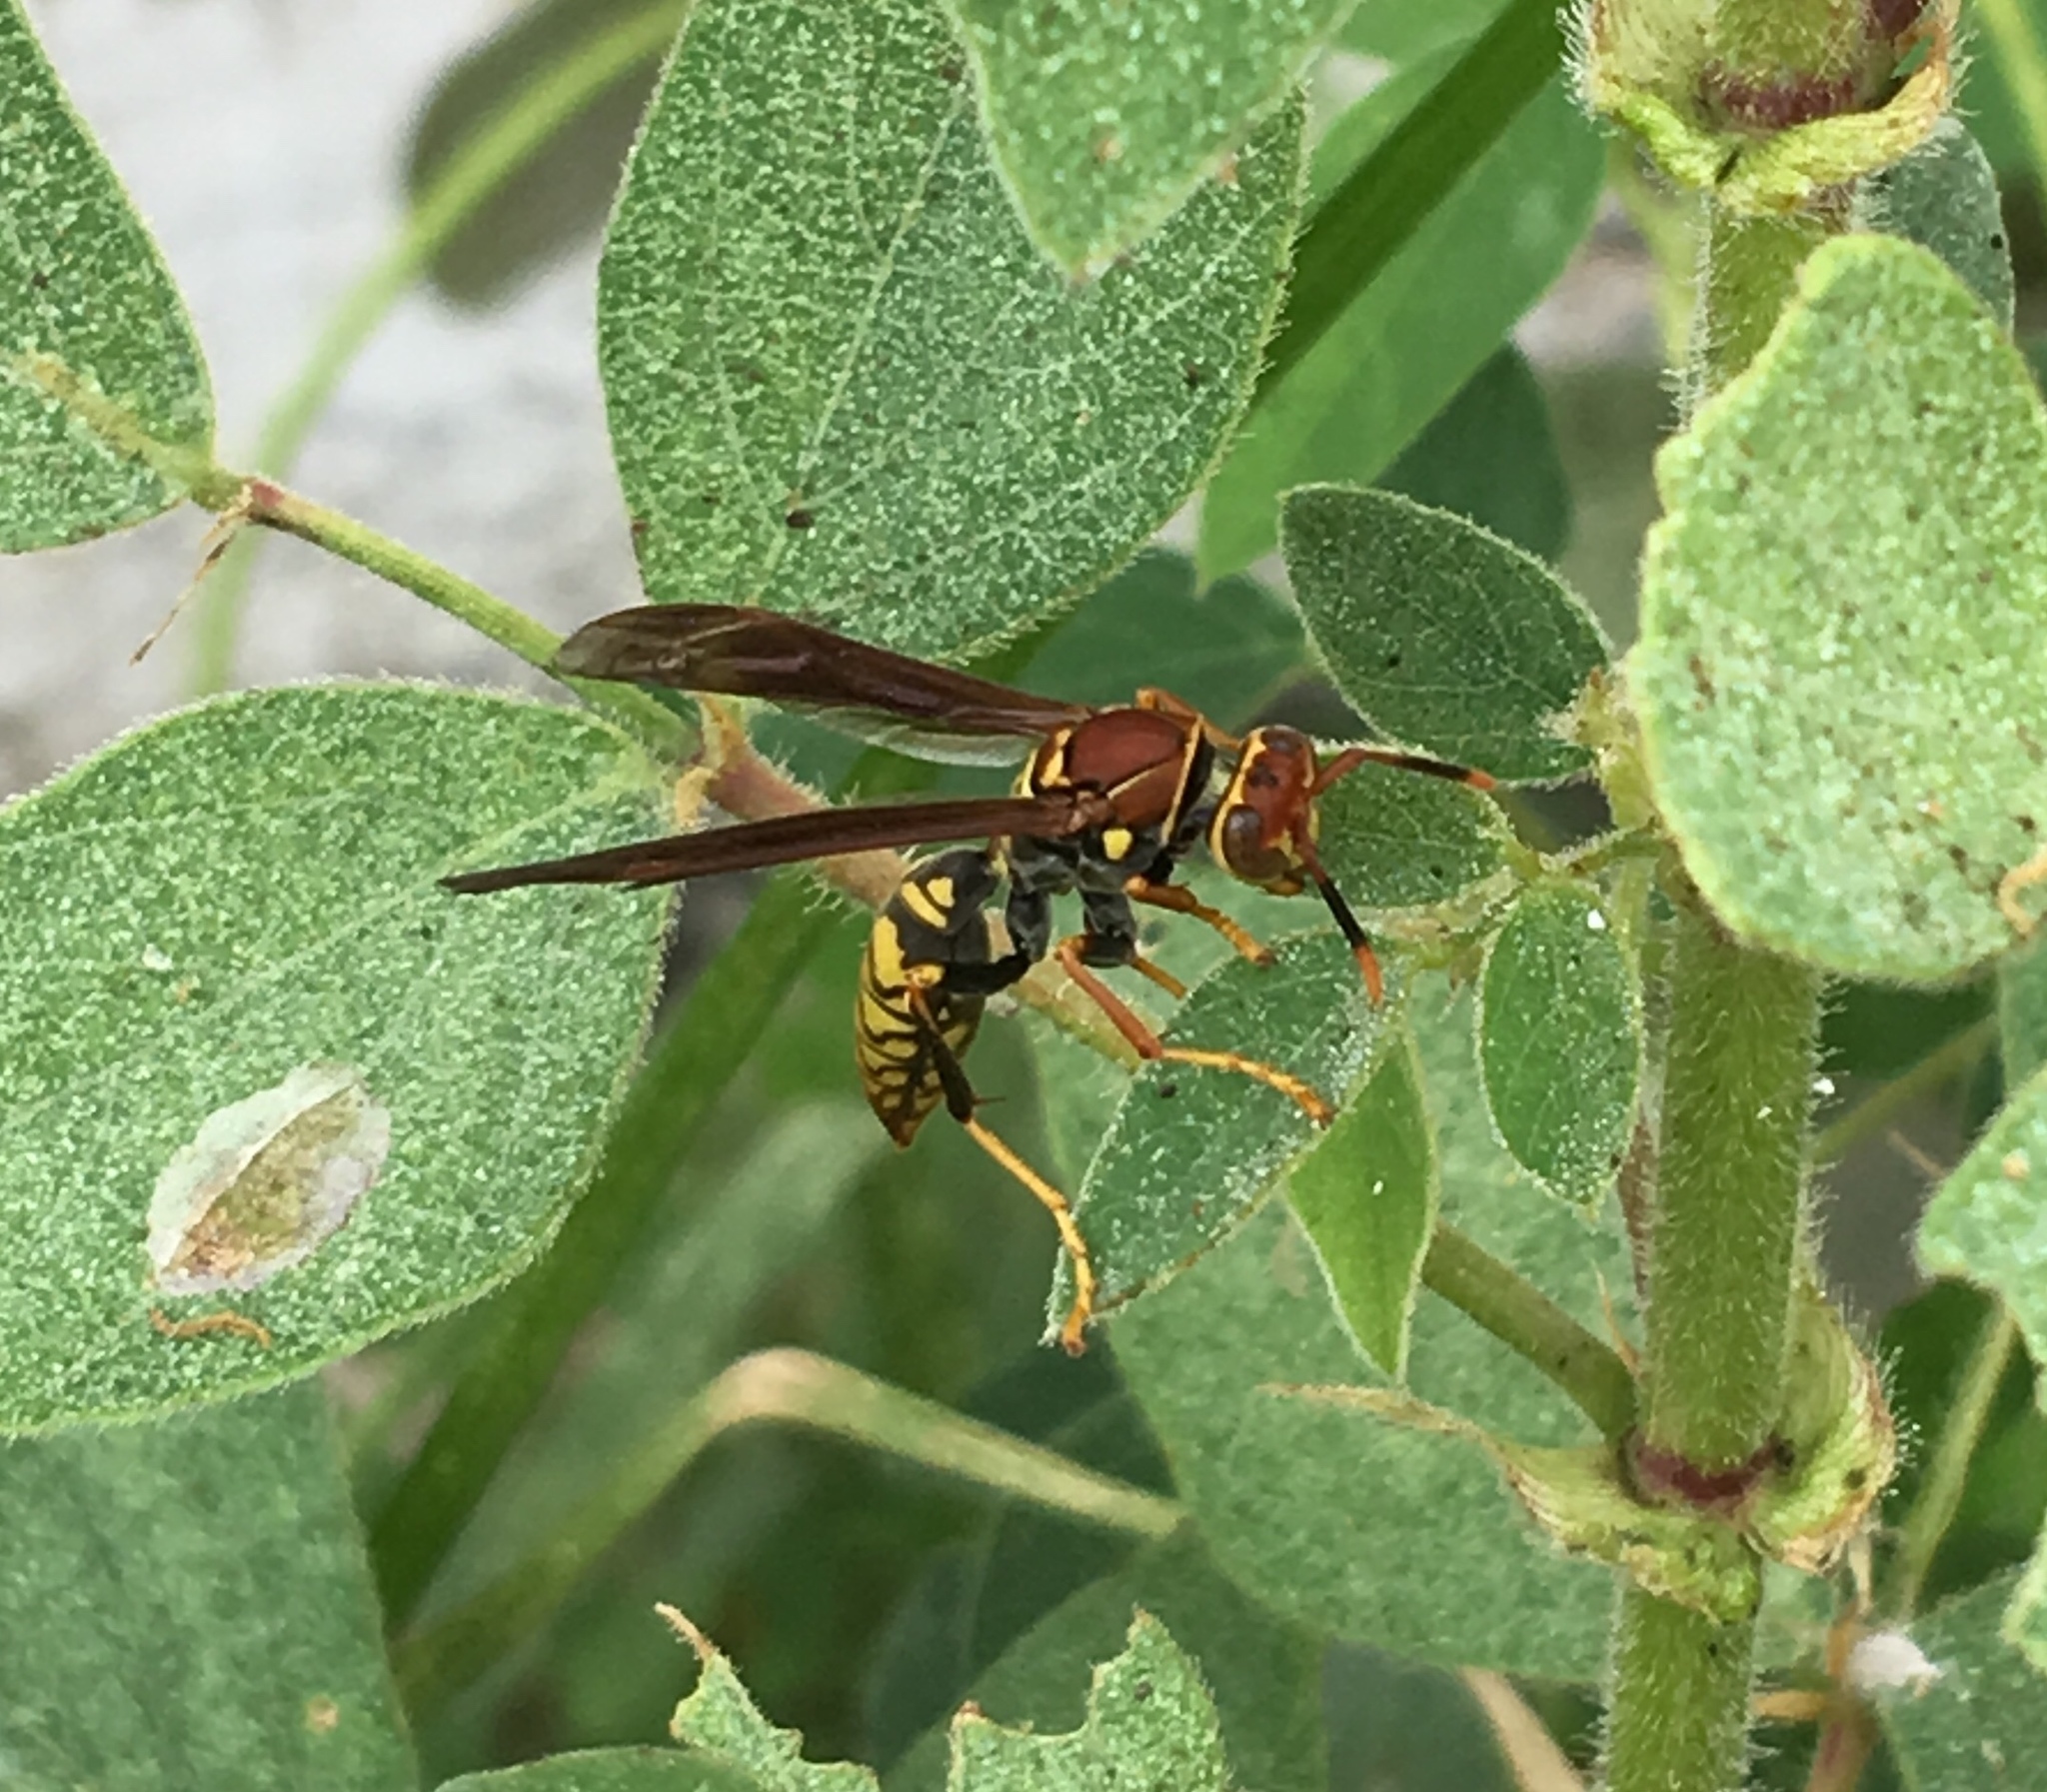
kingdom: Animalia
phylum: Arthropoda
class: Insecta
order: Hymenoptera
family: Eumenidae
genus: Polistes
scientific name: Polistes myersi
